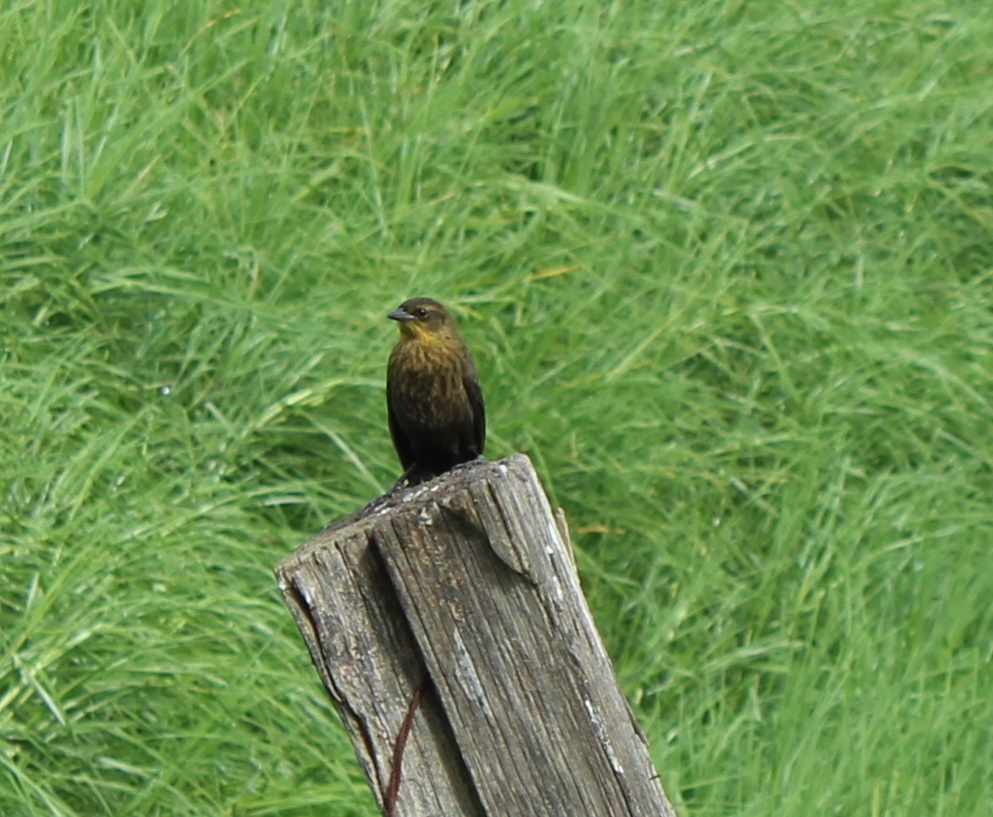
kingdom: Animalia
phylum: Chordata
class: Aves
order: Passeriformes
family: Icteridae
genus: Chrysomus
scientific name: Chrysomus icterocephalus
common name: Yellow-hooded blackbird
